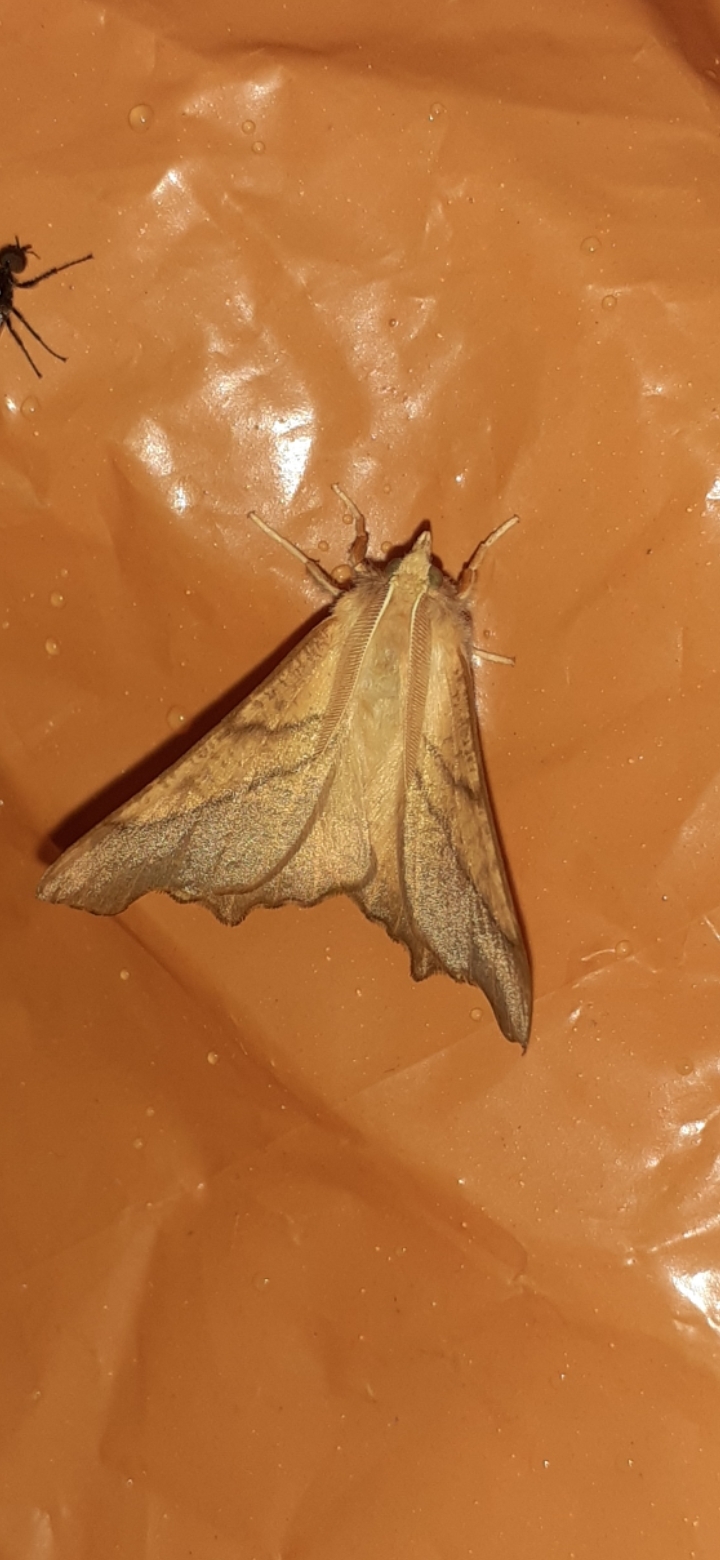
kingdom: Animalia
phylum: Arthropoda
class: Insecta
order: Lepidoptera
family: Geometridae
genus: Ennomos
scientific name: Ennomos fuscantaria
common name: Dusky thorn
